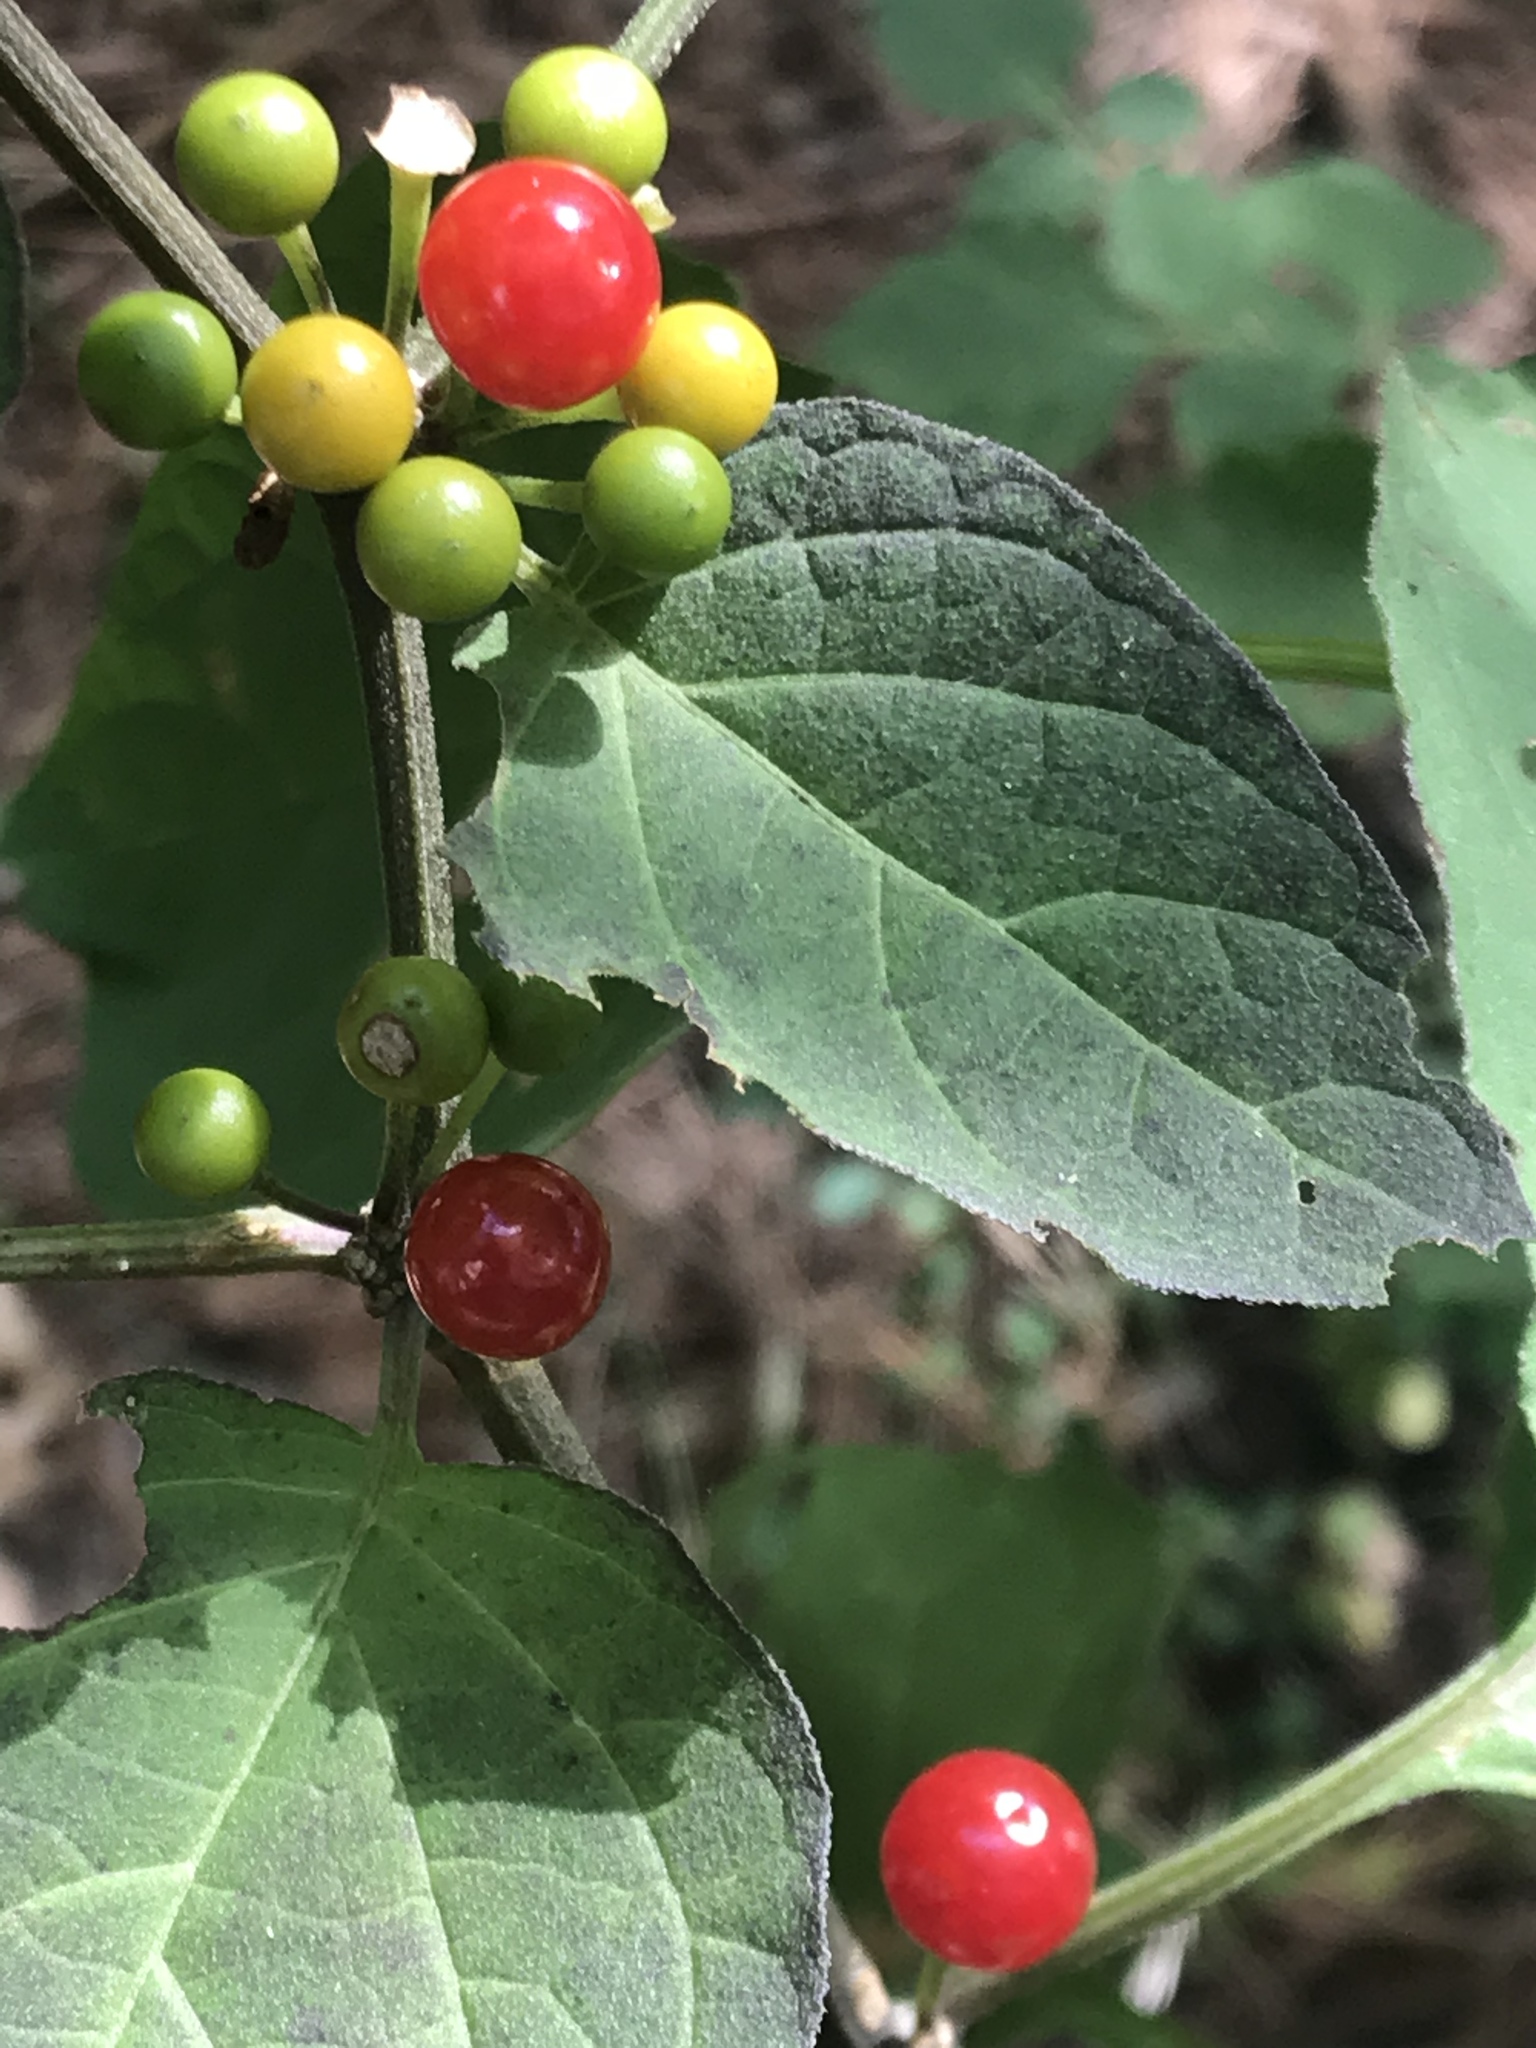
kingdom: Plantae
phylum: Tracheophyta
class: Magnoliopsida
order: Solanales
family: Solanaceae
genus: Witheringia
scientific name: Witheringia mexicana
